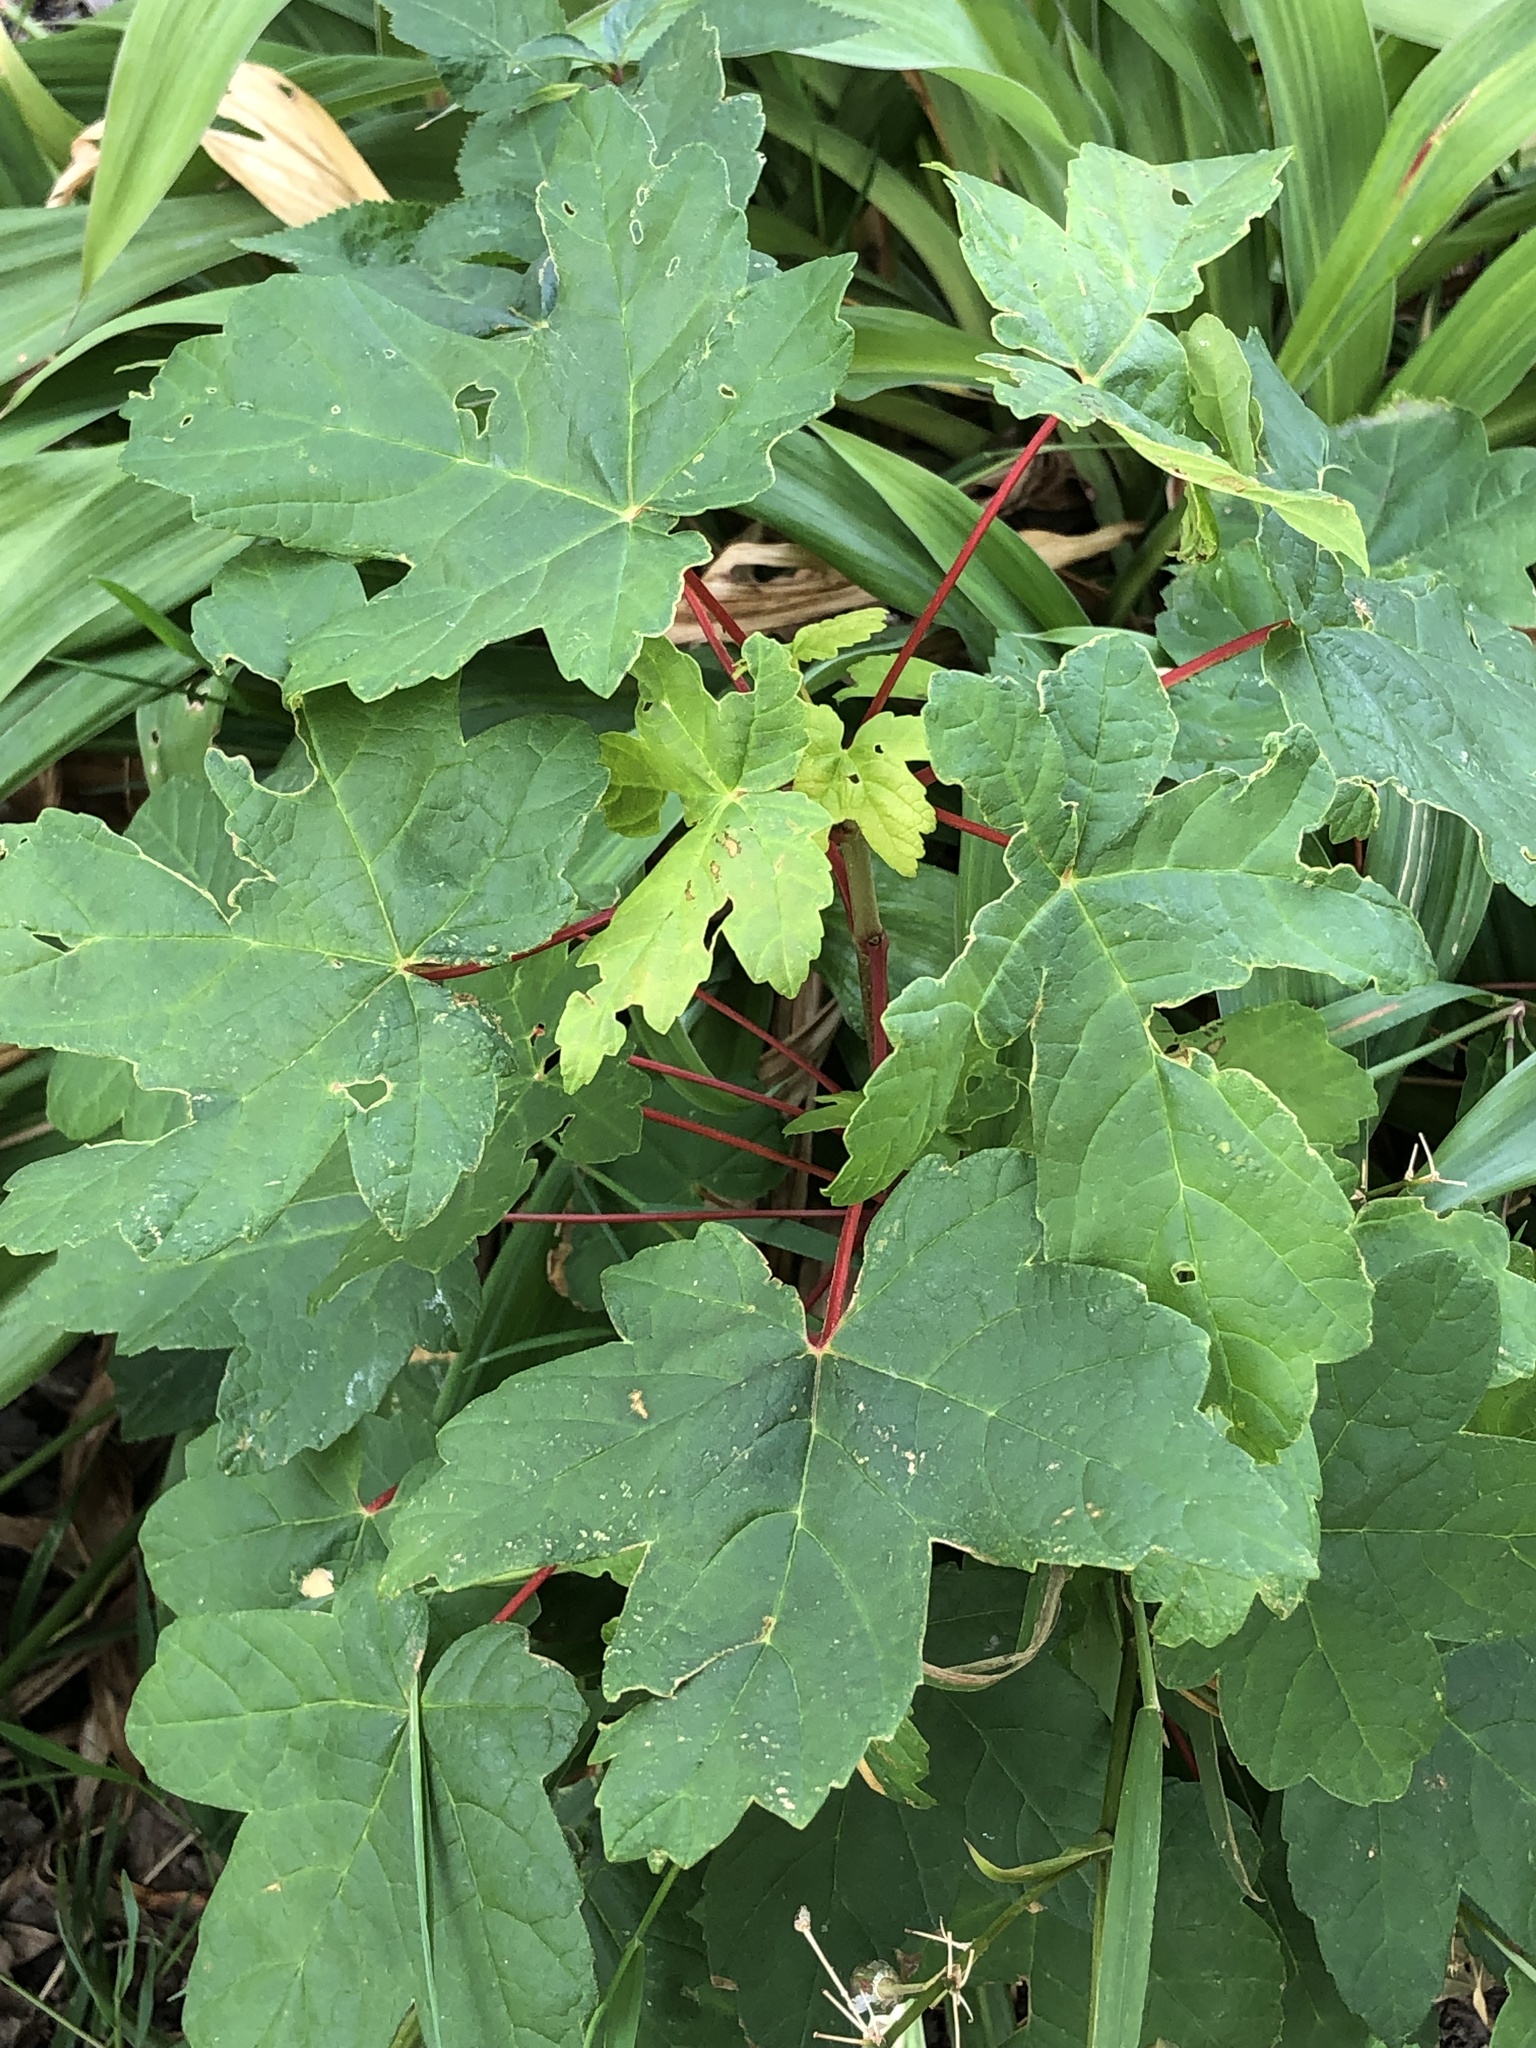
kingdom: Plantae
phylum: Tracheophyta
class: Magnoliopsida
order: Sapindales
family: Sapindaceae
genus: Acer
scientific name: Acer pseudoplatanus
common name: Sycamore
